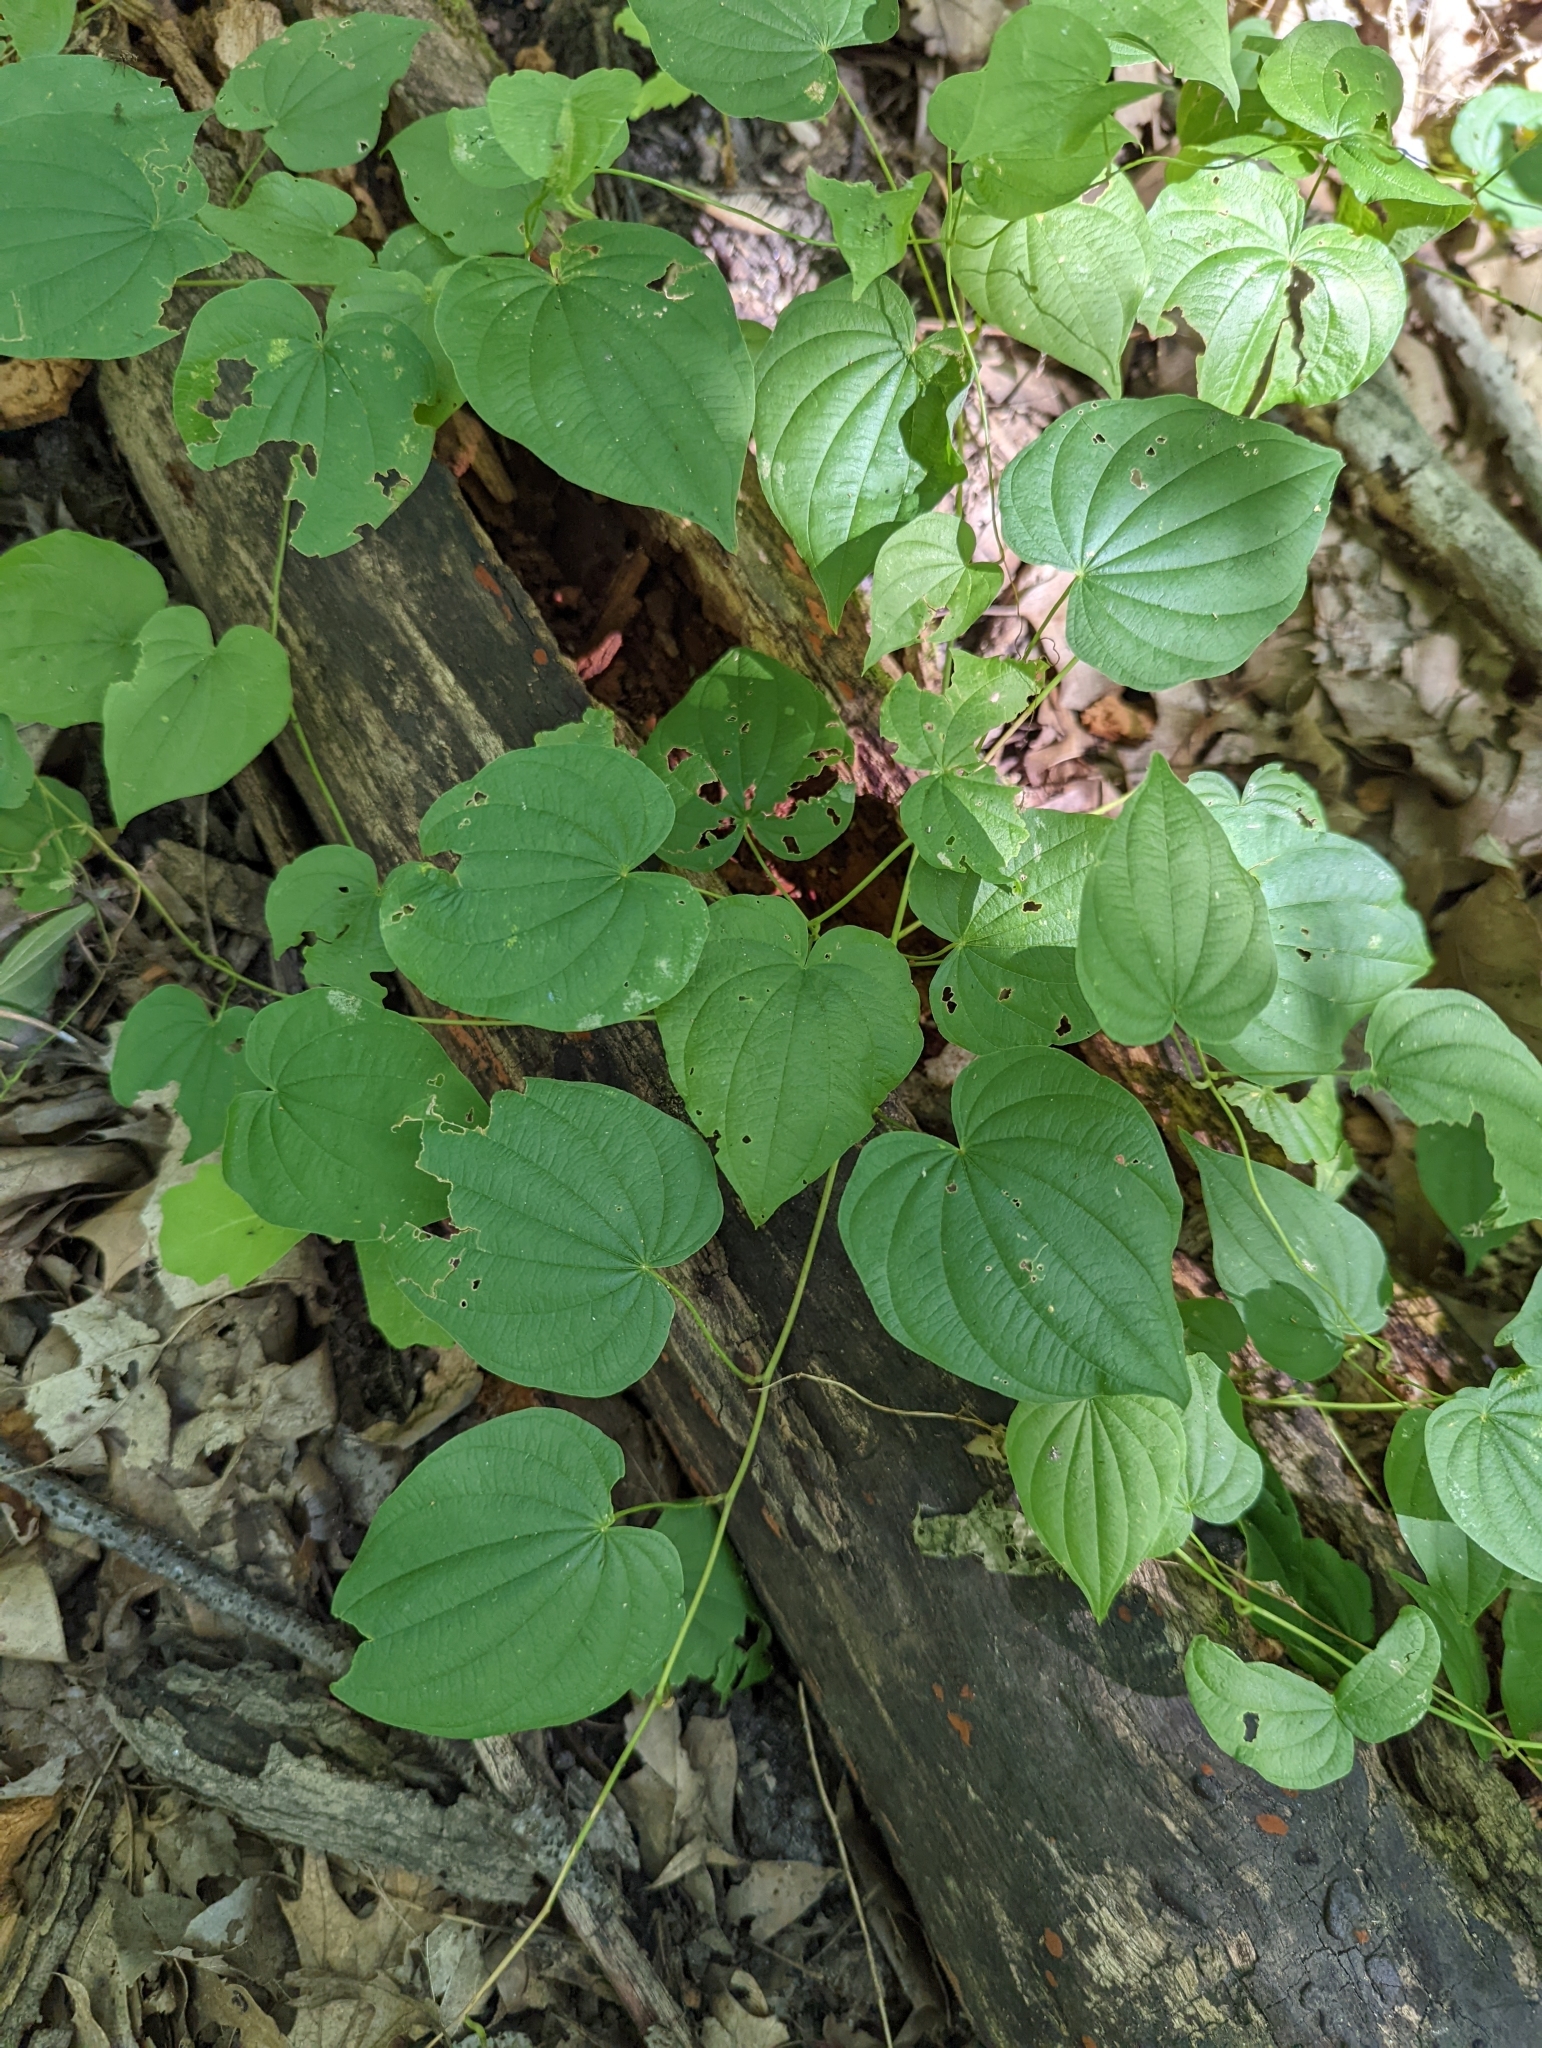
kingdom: Plantae
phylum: Tracheophyta
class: Liliopsida
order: Dioscoreales
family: Dioscoreaceae
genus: Dioscorea
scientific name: Dioscorea villosa
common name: Wild yam
